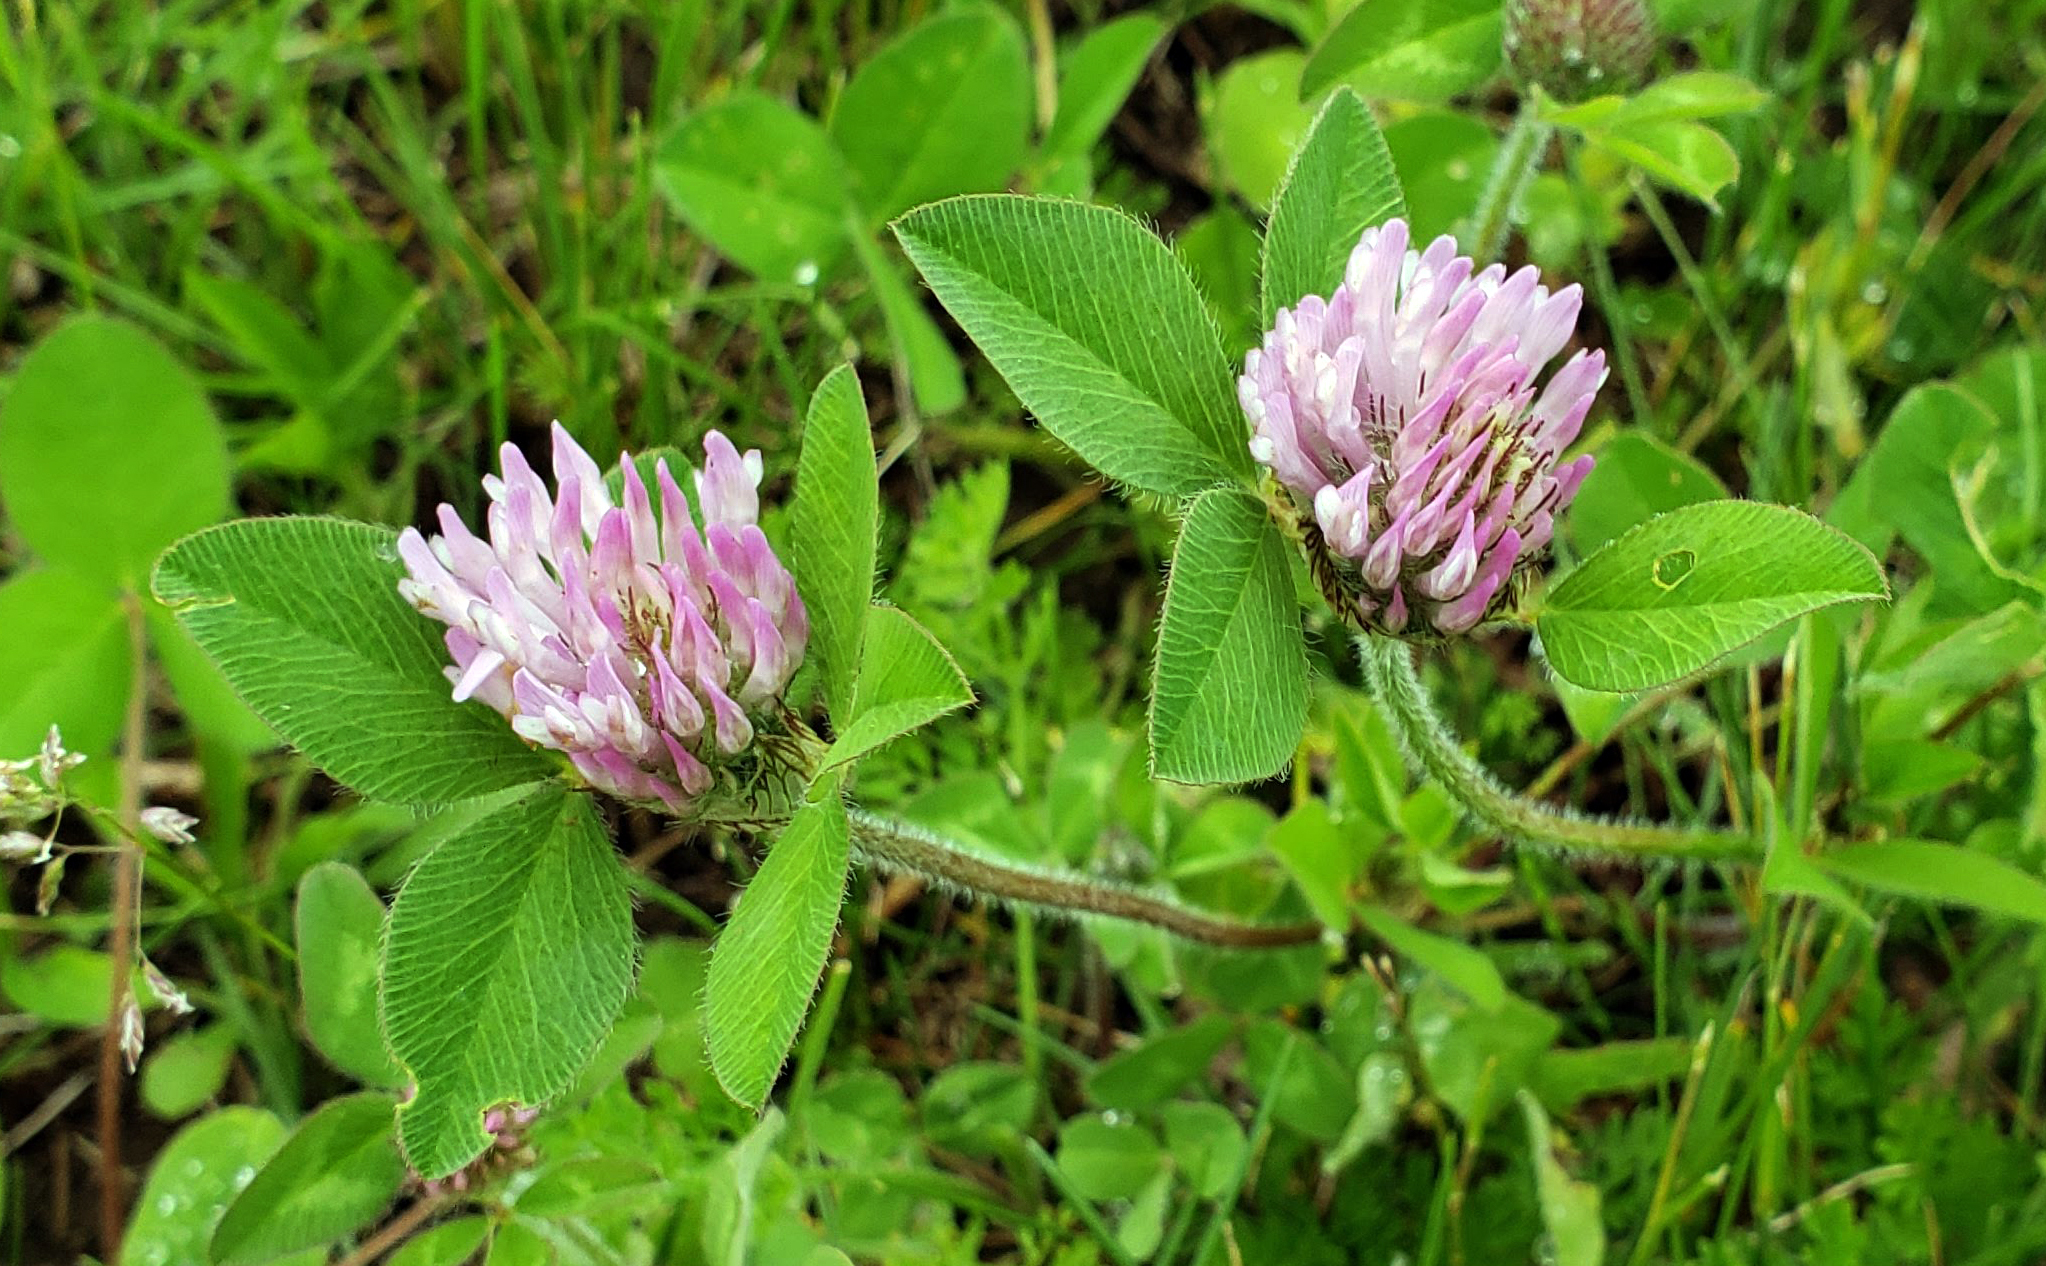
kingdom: Plantae
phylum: Tracheophyta
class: Magnoliopsida
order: Fabales
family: Fabaceae
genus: Trifolium
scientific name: Trifolium pratense
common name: Red clover
